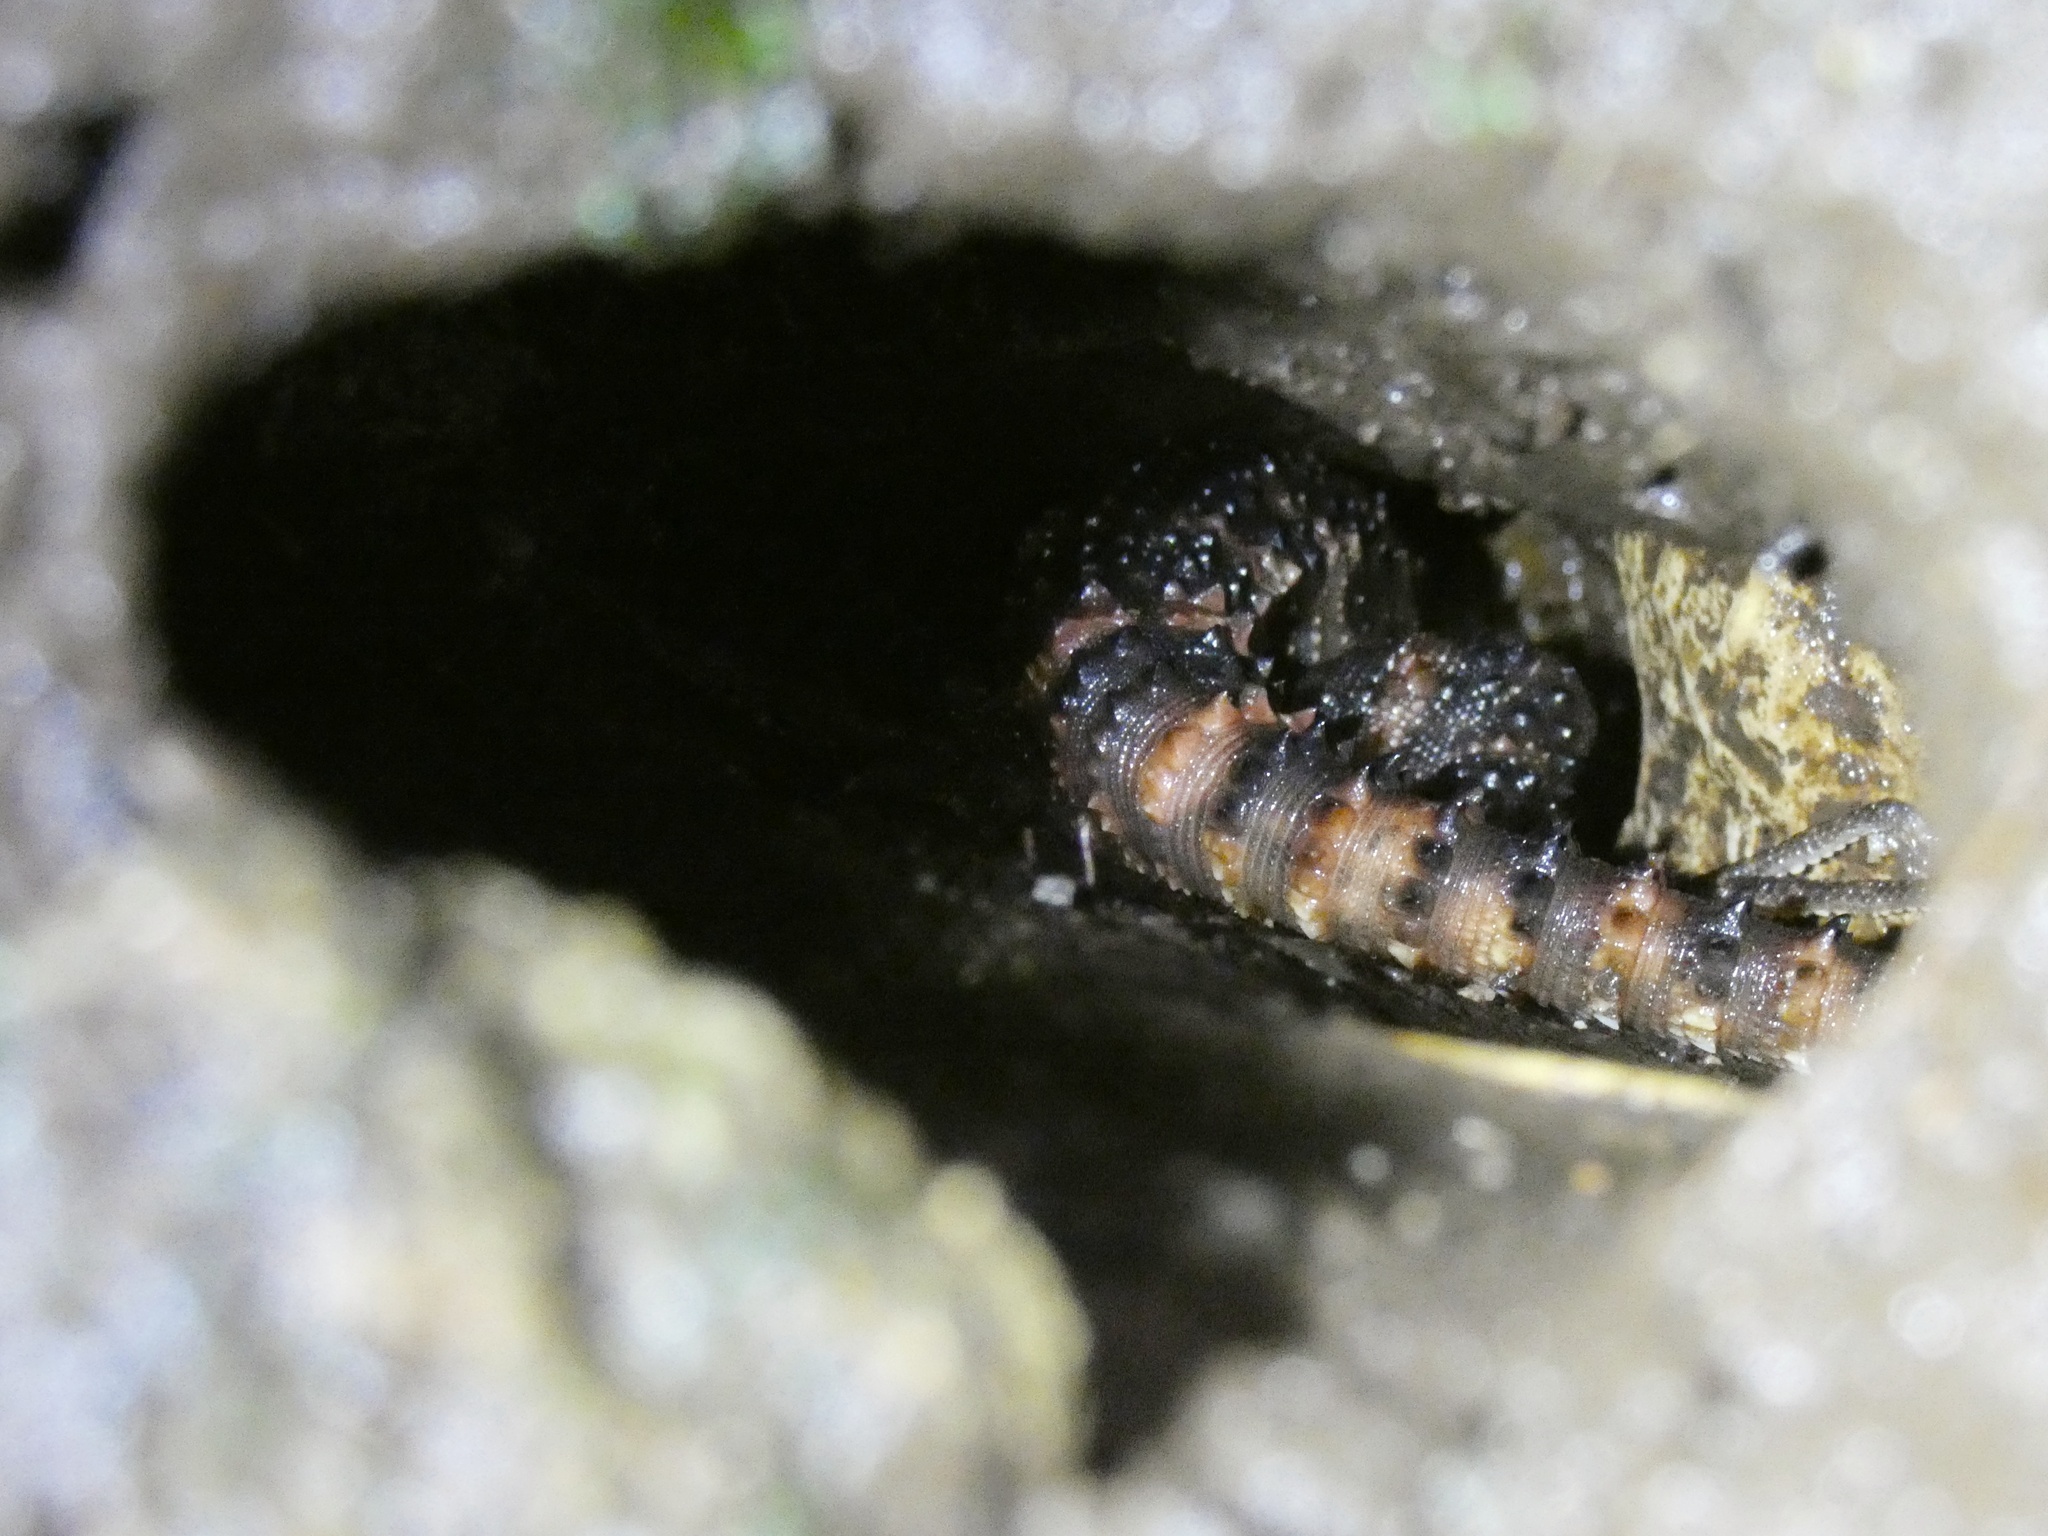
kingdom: Animalia
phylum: Chordata
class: Squamata
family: Hoplocercidae
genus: Enyalioides
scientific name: Enyalioides
